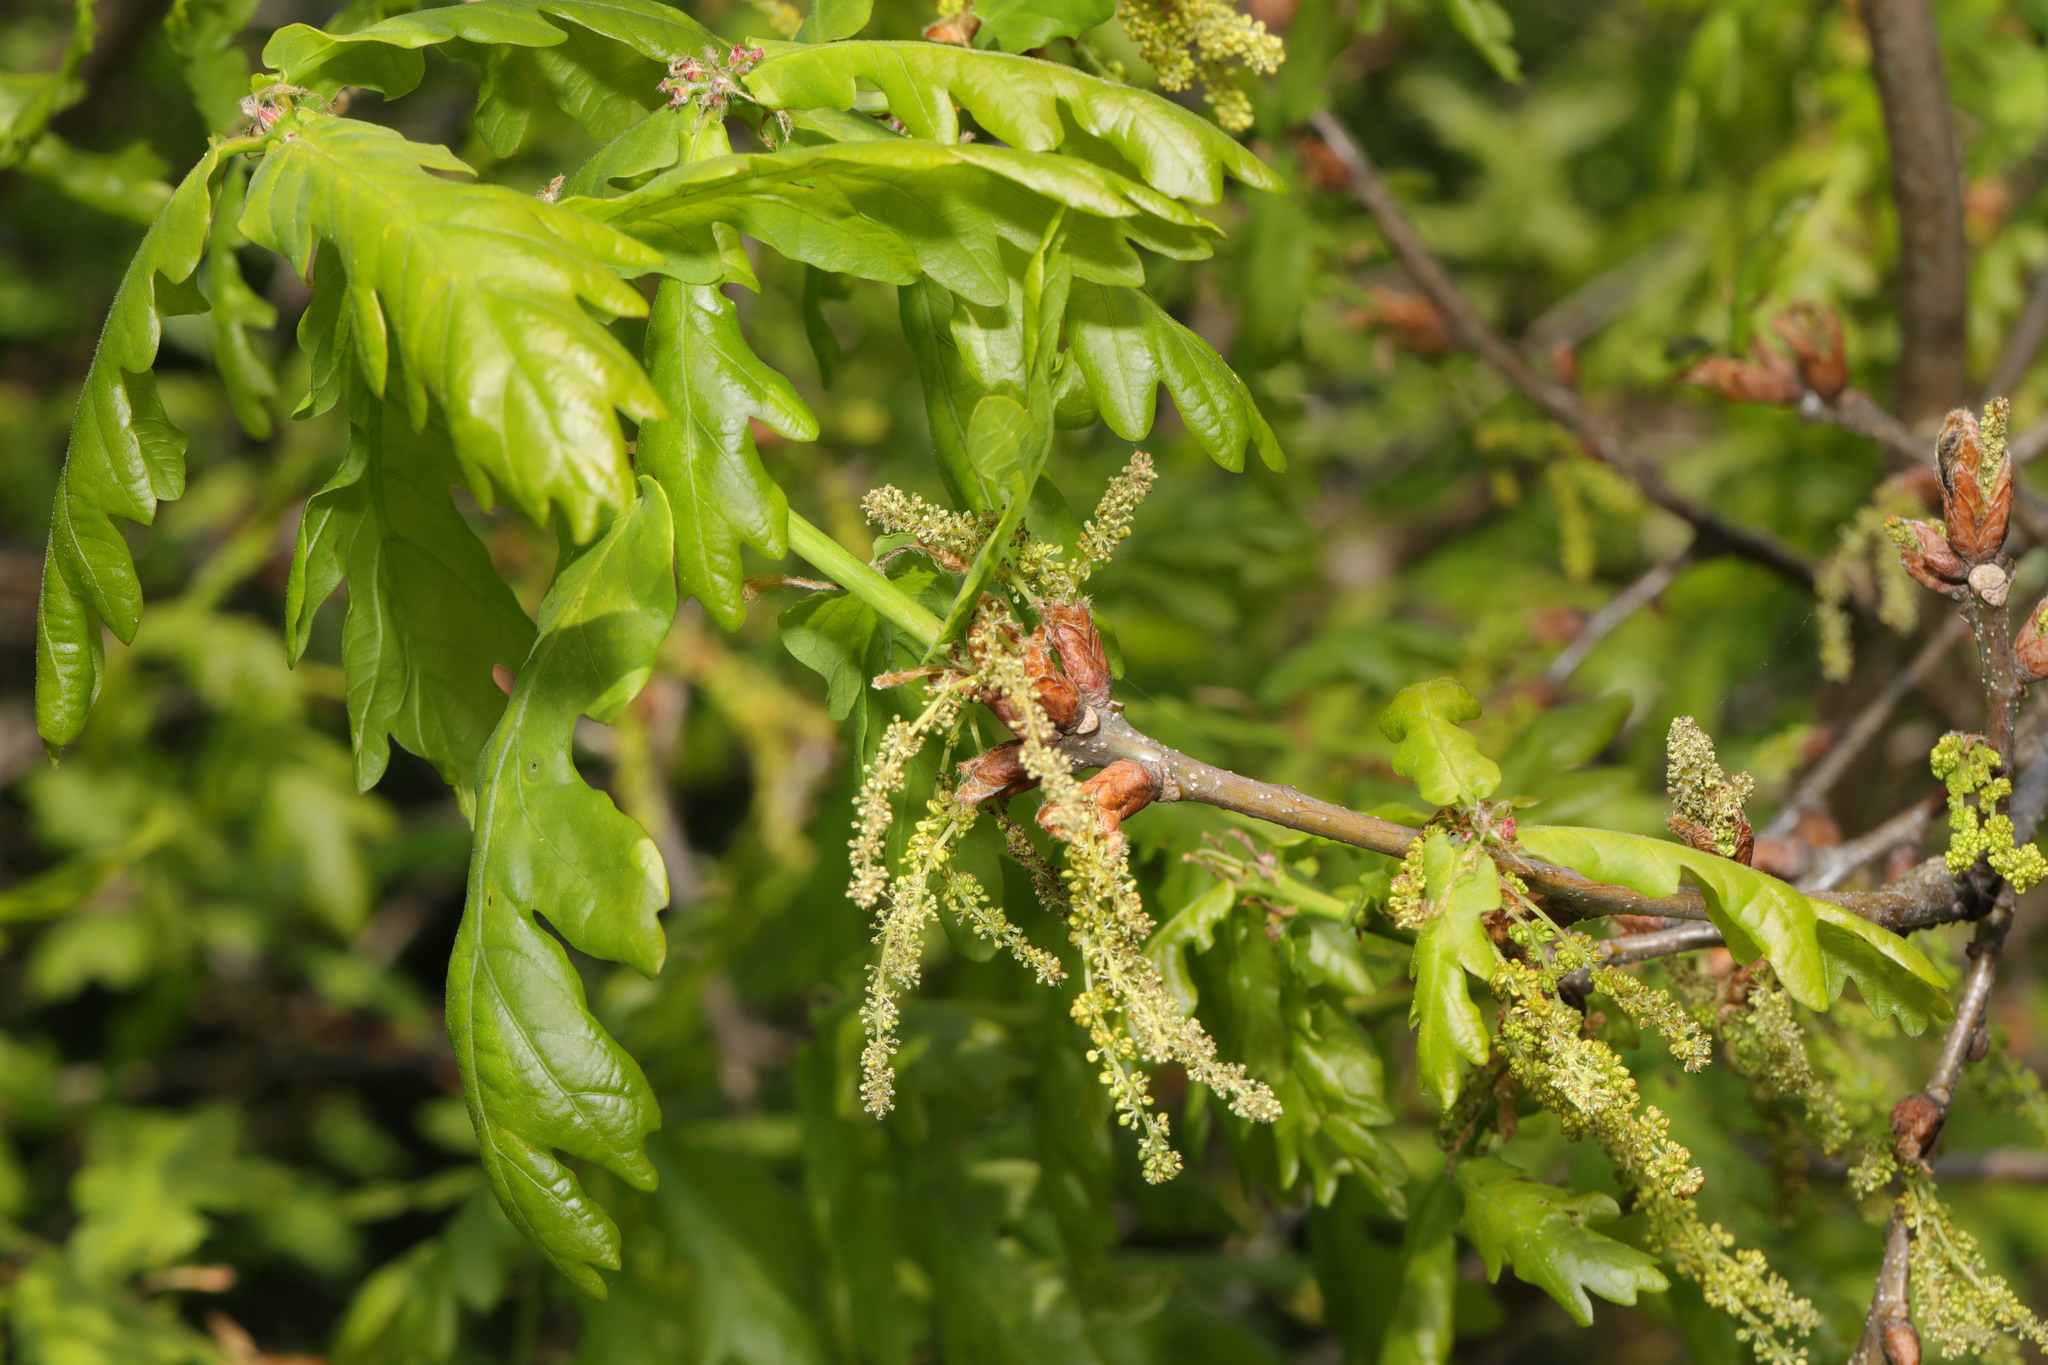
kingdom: Plantae
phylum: Tracheophyta
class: Magnoliopsida
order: Fagales
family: Fagaceae
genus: Quercus
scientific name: Quercus robur
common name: Pedunculate oak
